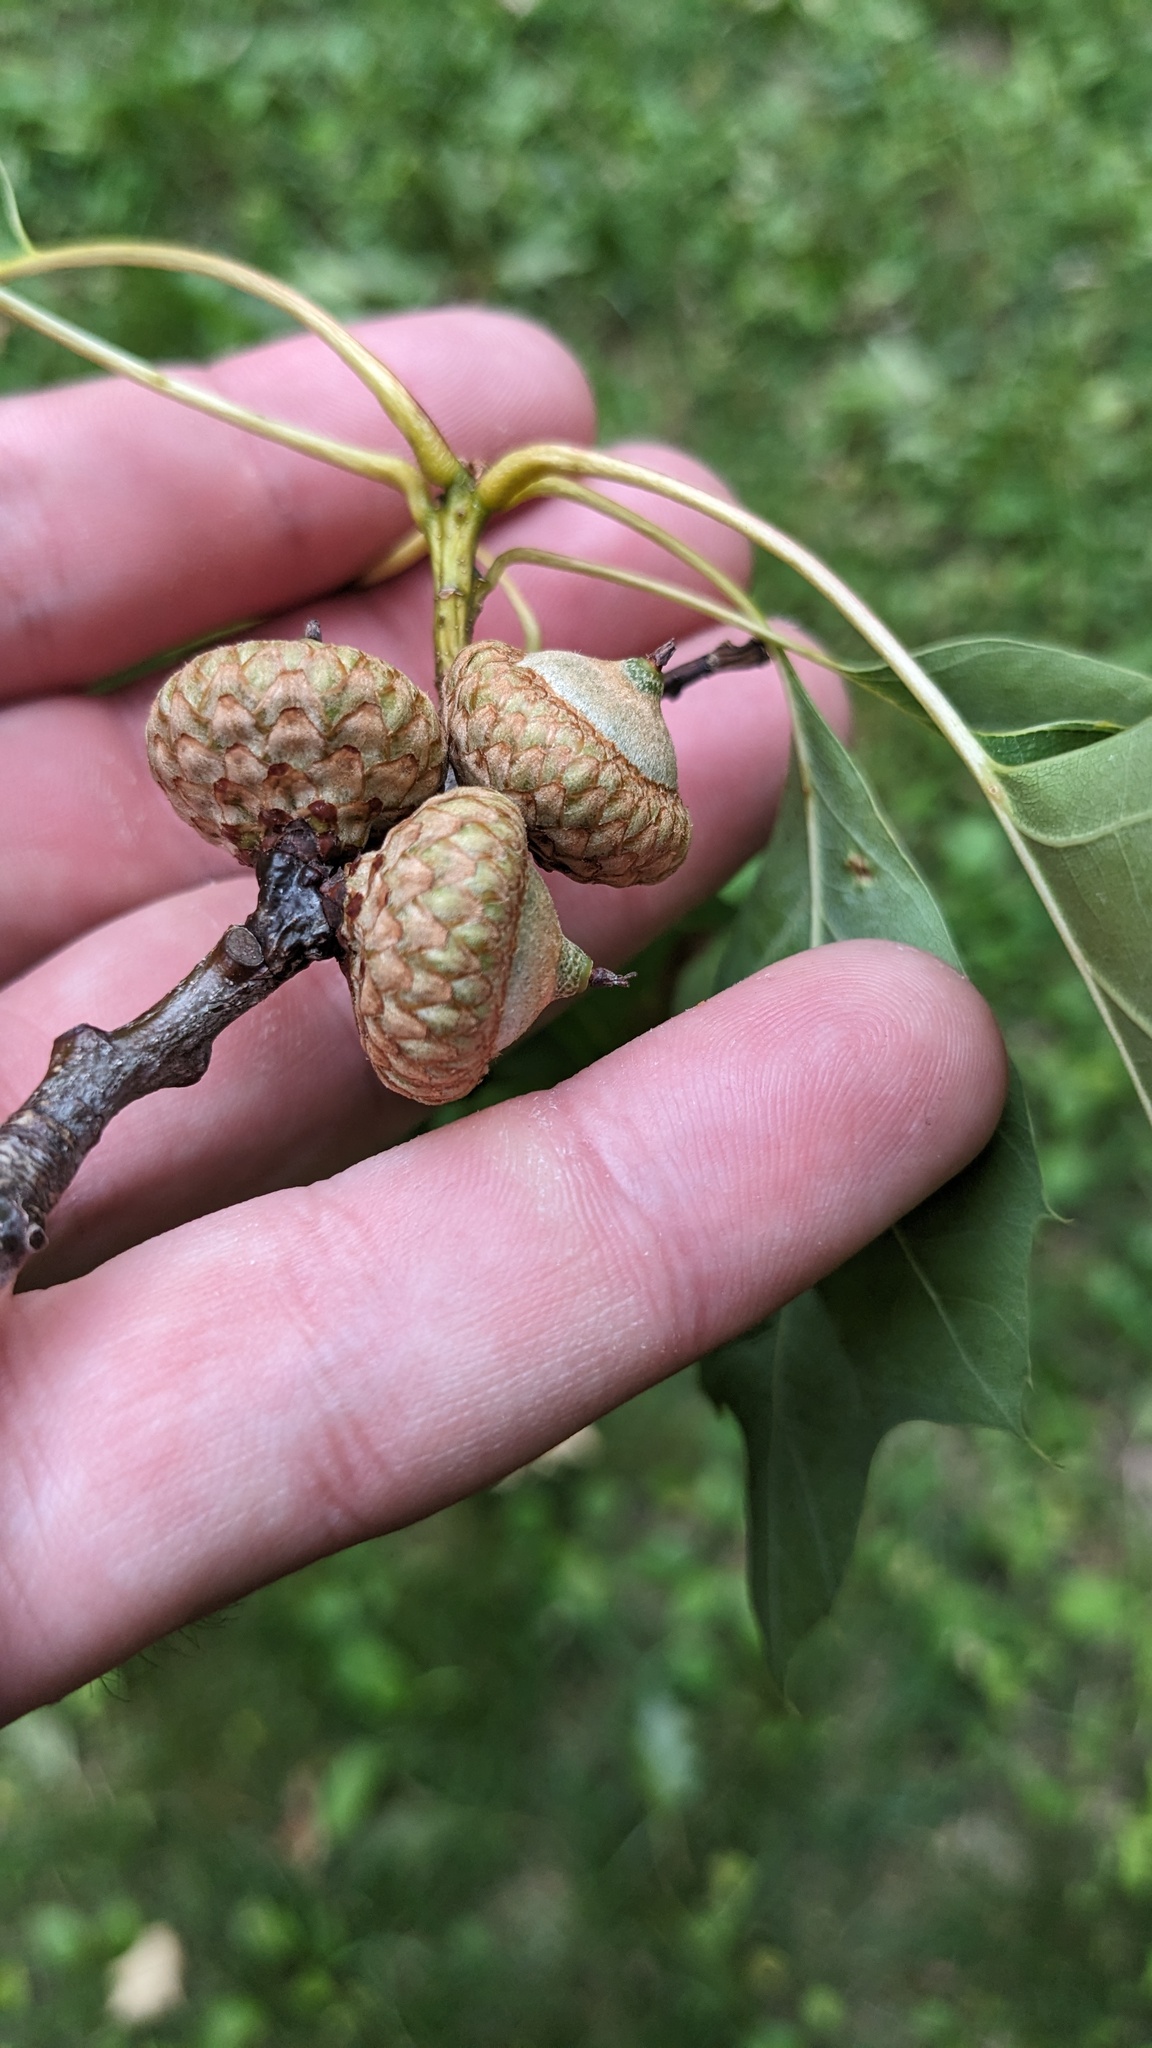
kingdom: Plantae
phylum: Tracheophyta
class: Magnoliopsida
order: Fagales
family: Fagaceae
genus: Quercus
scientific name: Quercus rubra
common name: Red oak
